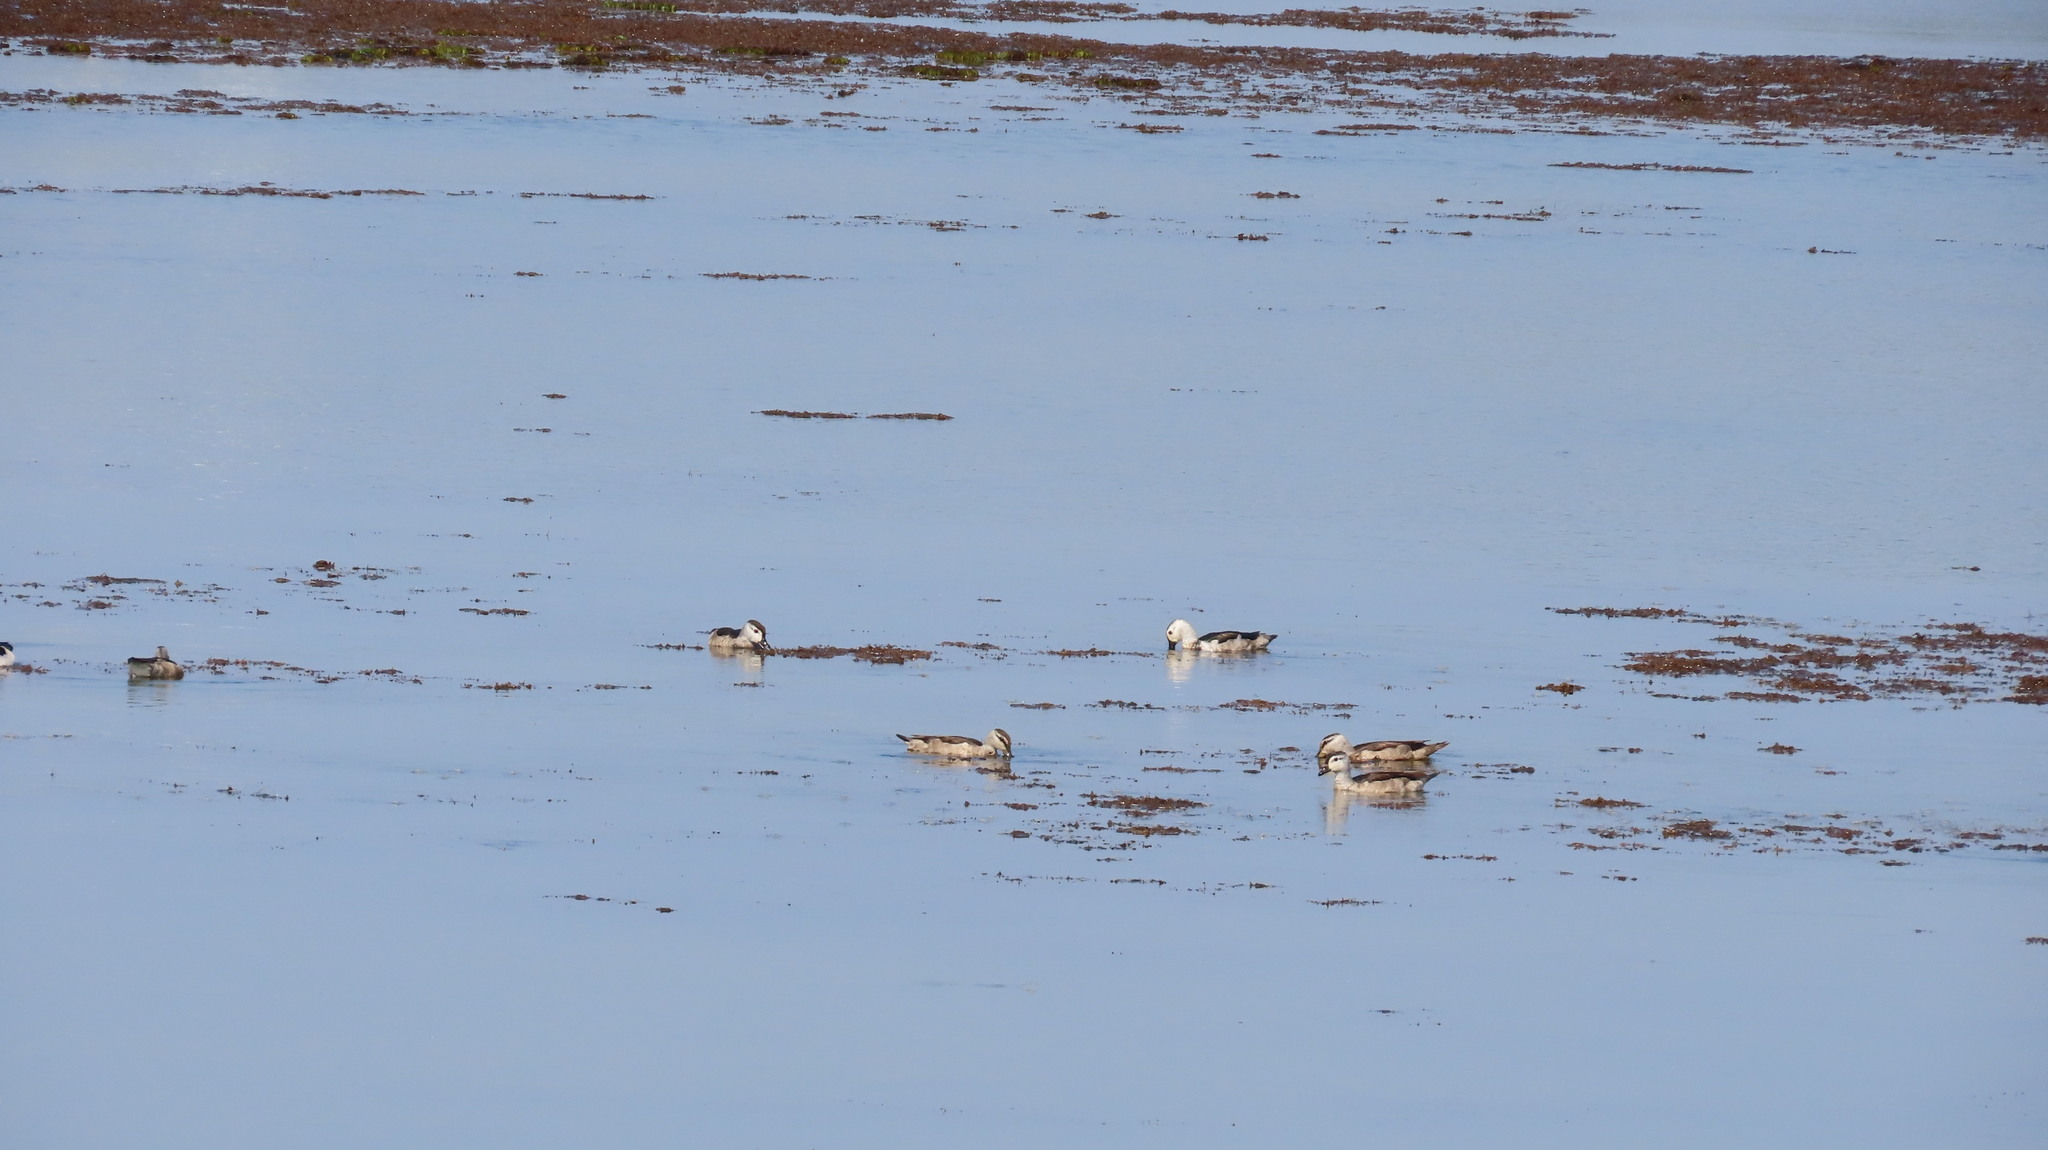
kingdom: Animalia
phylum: Chordata
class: Aves
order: Anseriformes
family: Anatidae
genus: Nettapus
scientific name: Nettapus coromandelianus
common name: Cotton pygmy-goose
